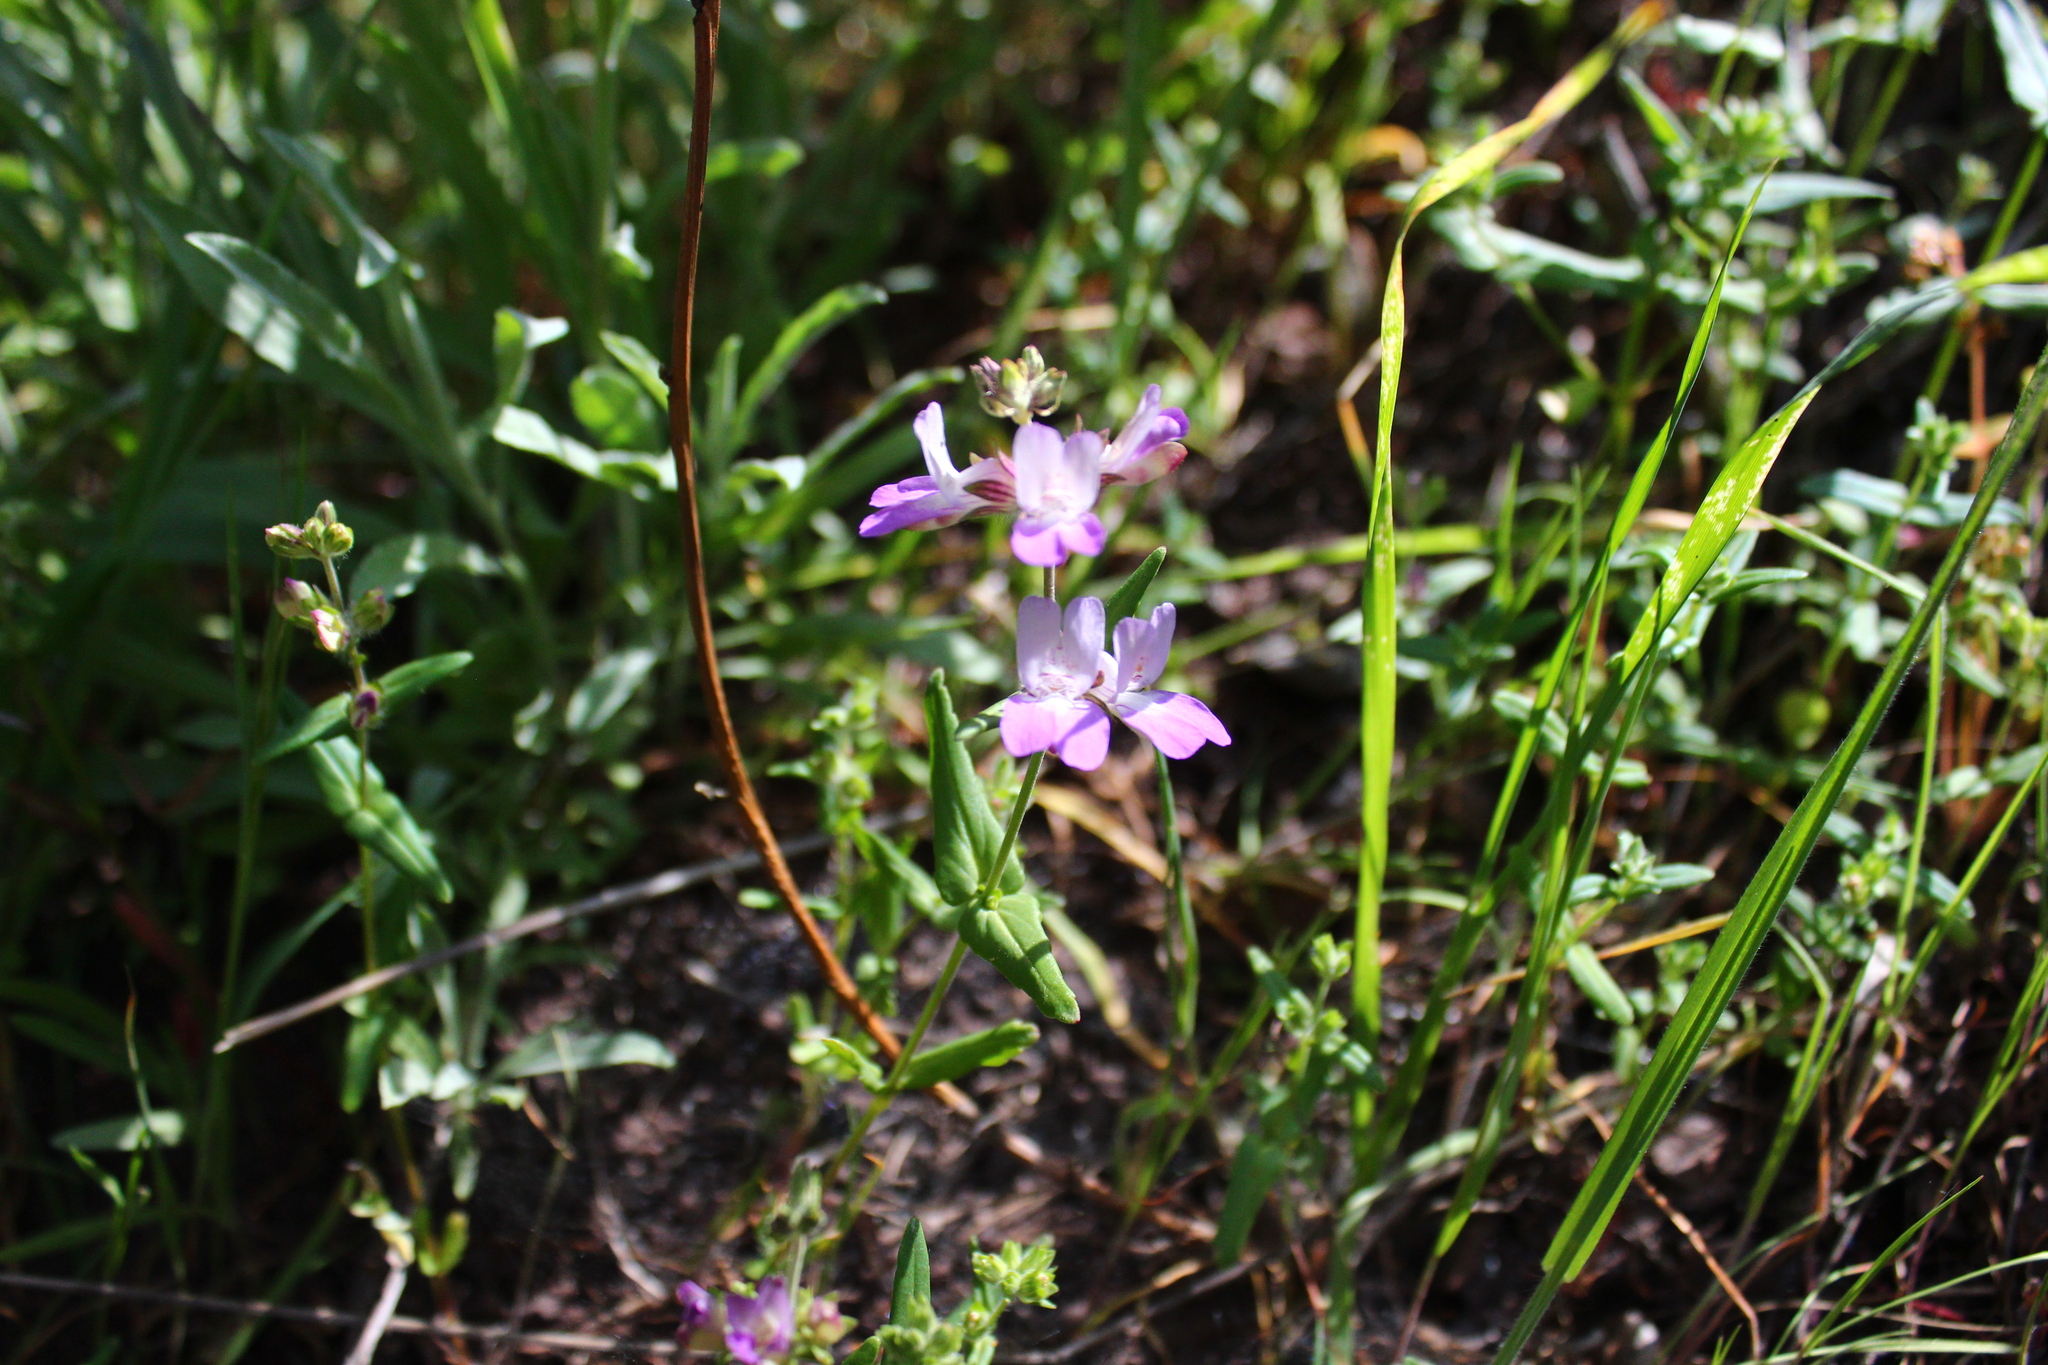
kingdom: Plantae
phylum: Tracheophyta
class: Magnoliopsida
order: Lamiales
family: Plantaginaceae
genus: Collinsia
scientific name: Collinsia concolor
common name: Chinese houses
